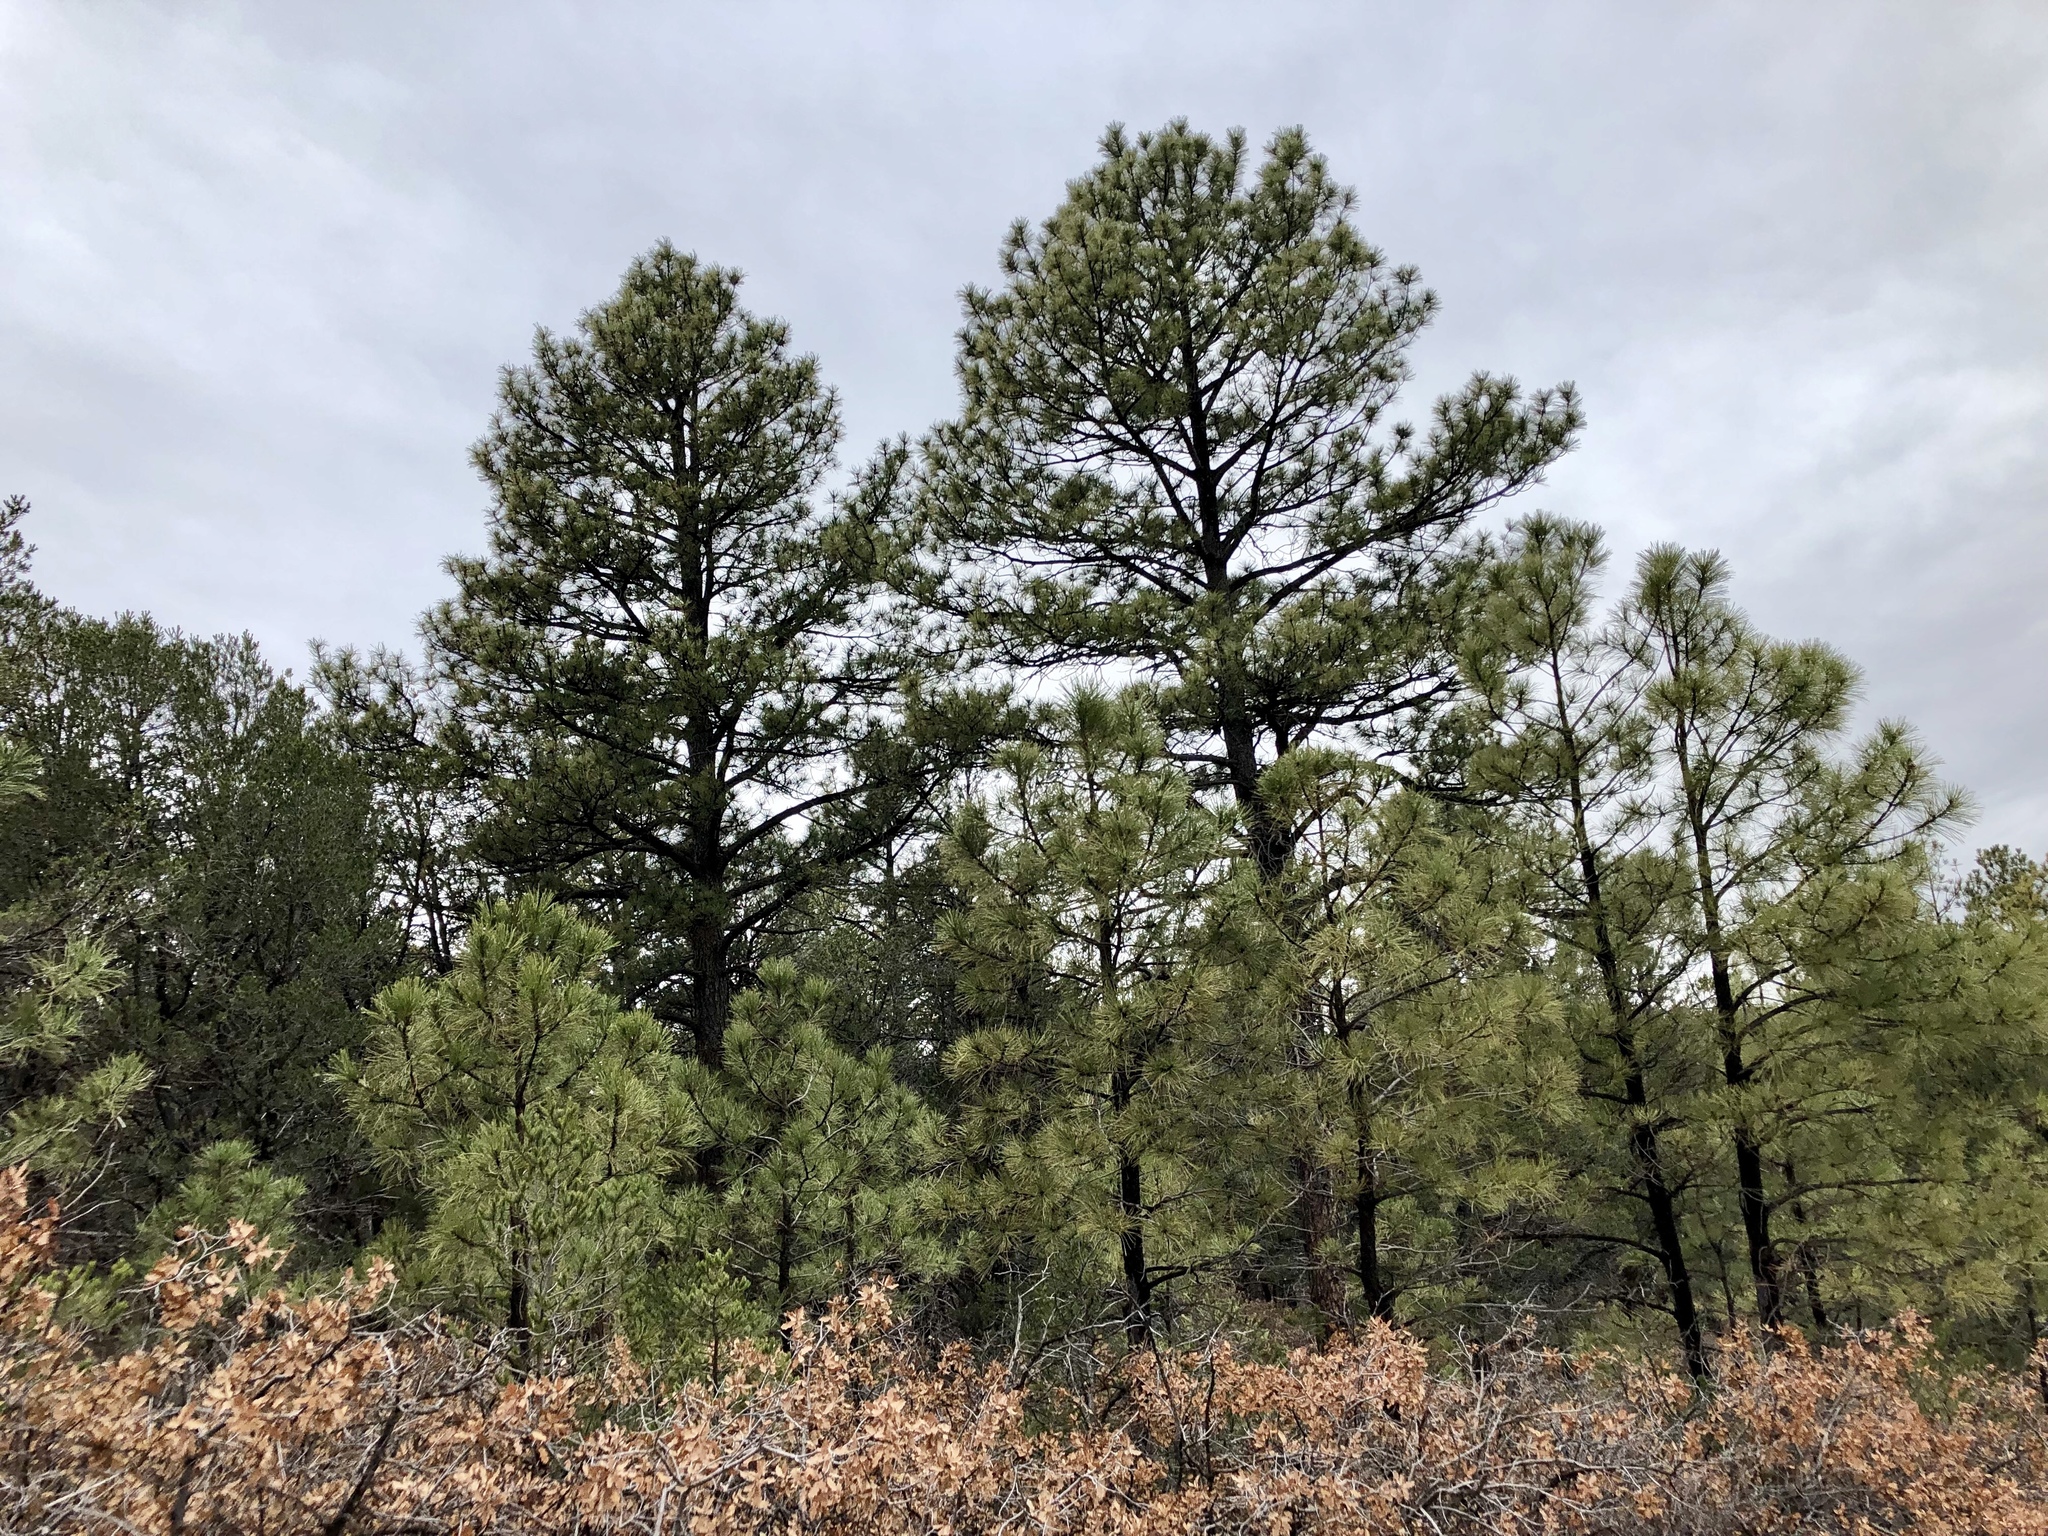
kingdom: Plantae
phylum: Tracheophyta
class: Pinopsida
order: Pinales
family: Pinaceae
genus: Pinus
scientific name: Pinus ponderosa
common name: Western yellow-pine
